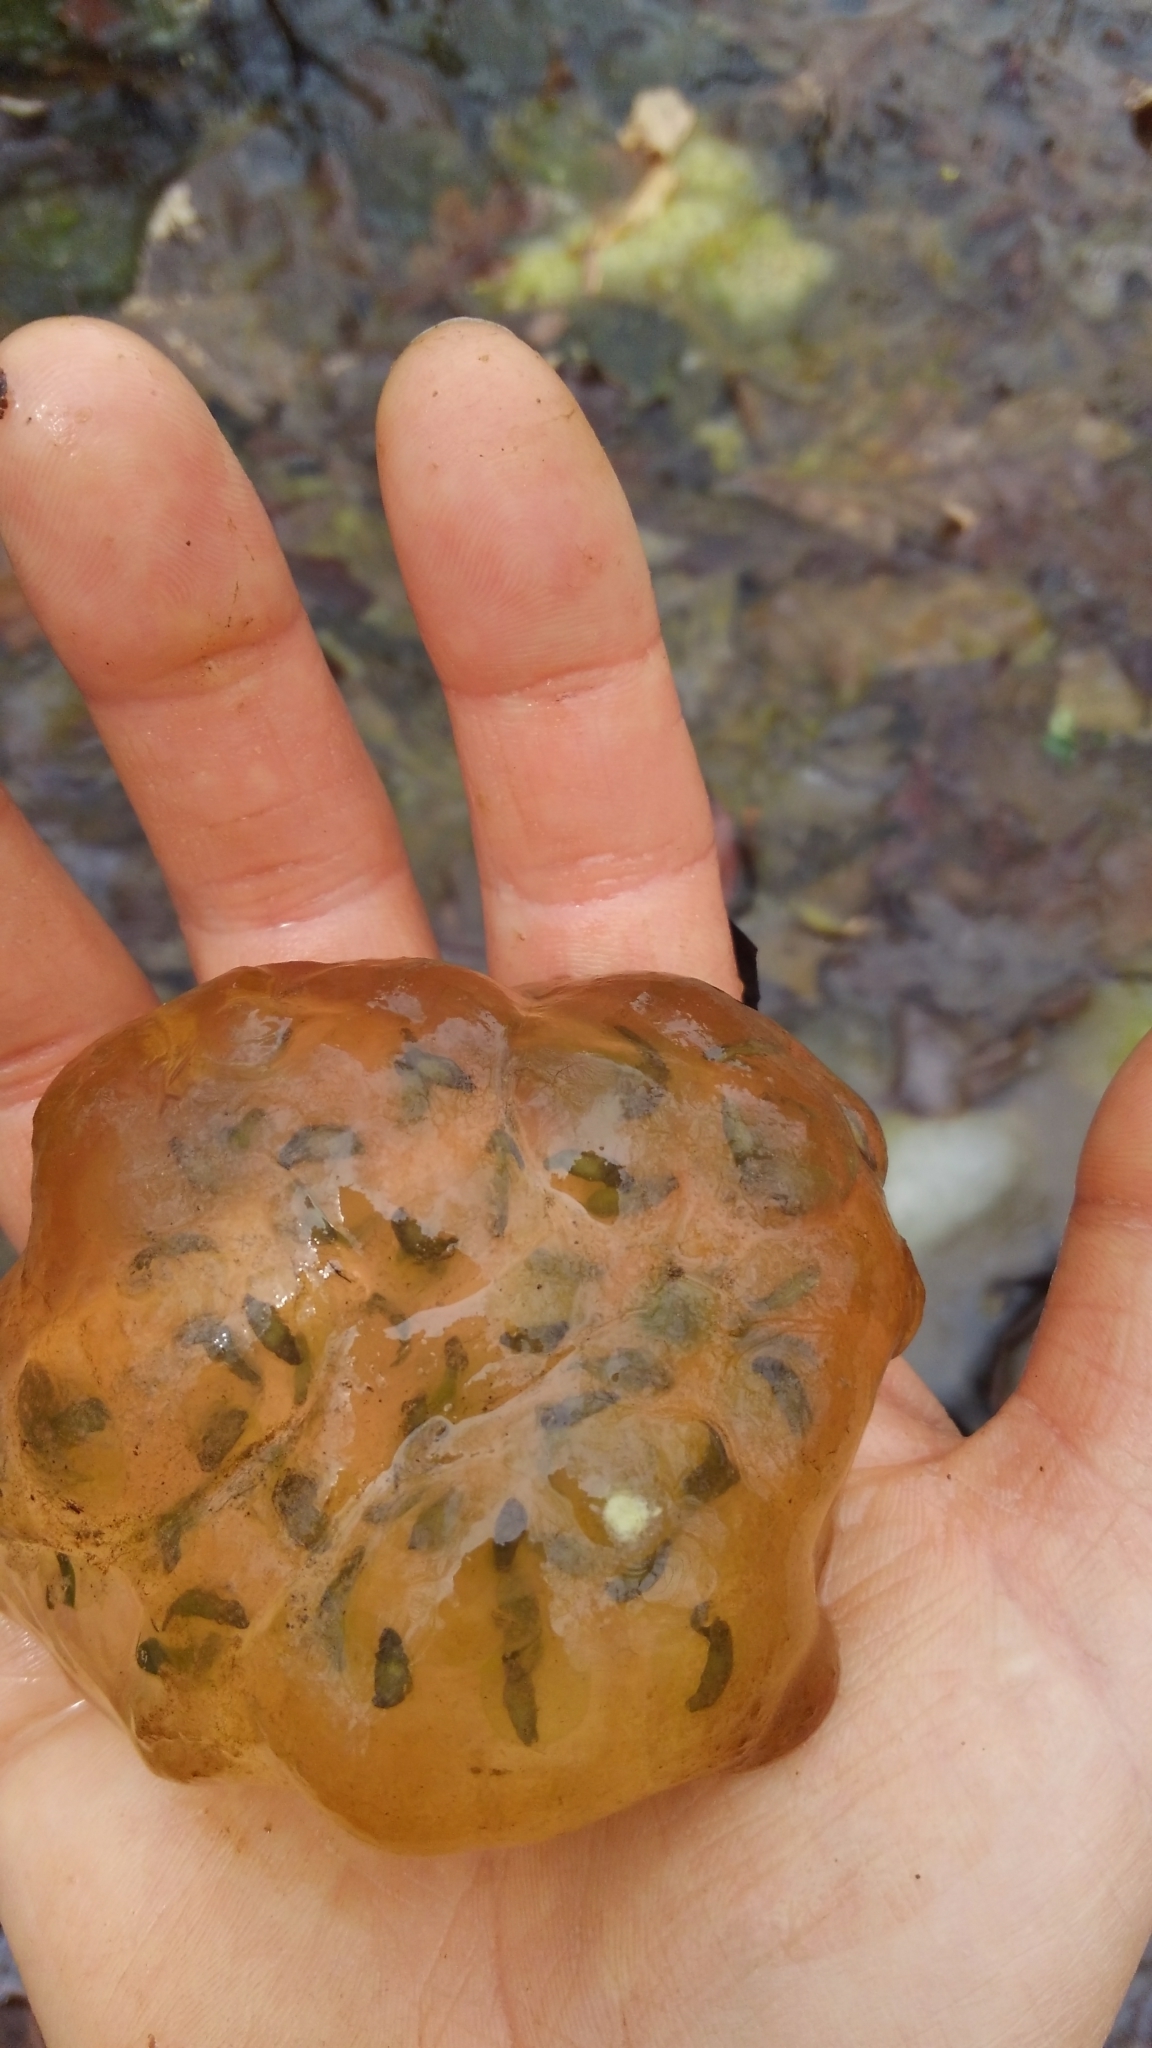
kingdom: Animalia
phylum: Chordata
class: Amphibia
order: Caudata
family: Ambystomatidae
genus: Ambystoma
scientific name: Ambystoma maculatum
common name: Spotted salamander
